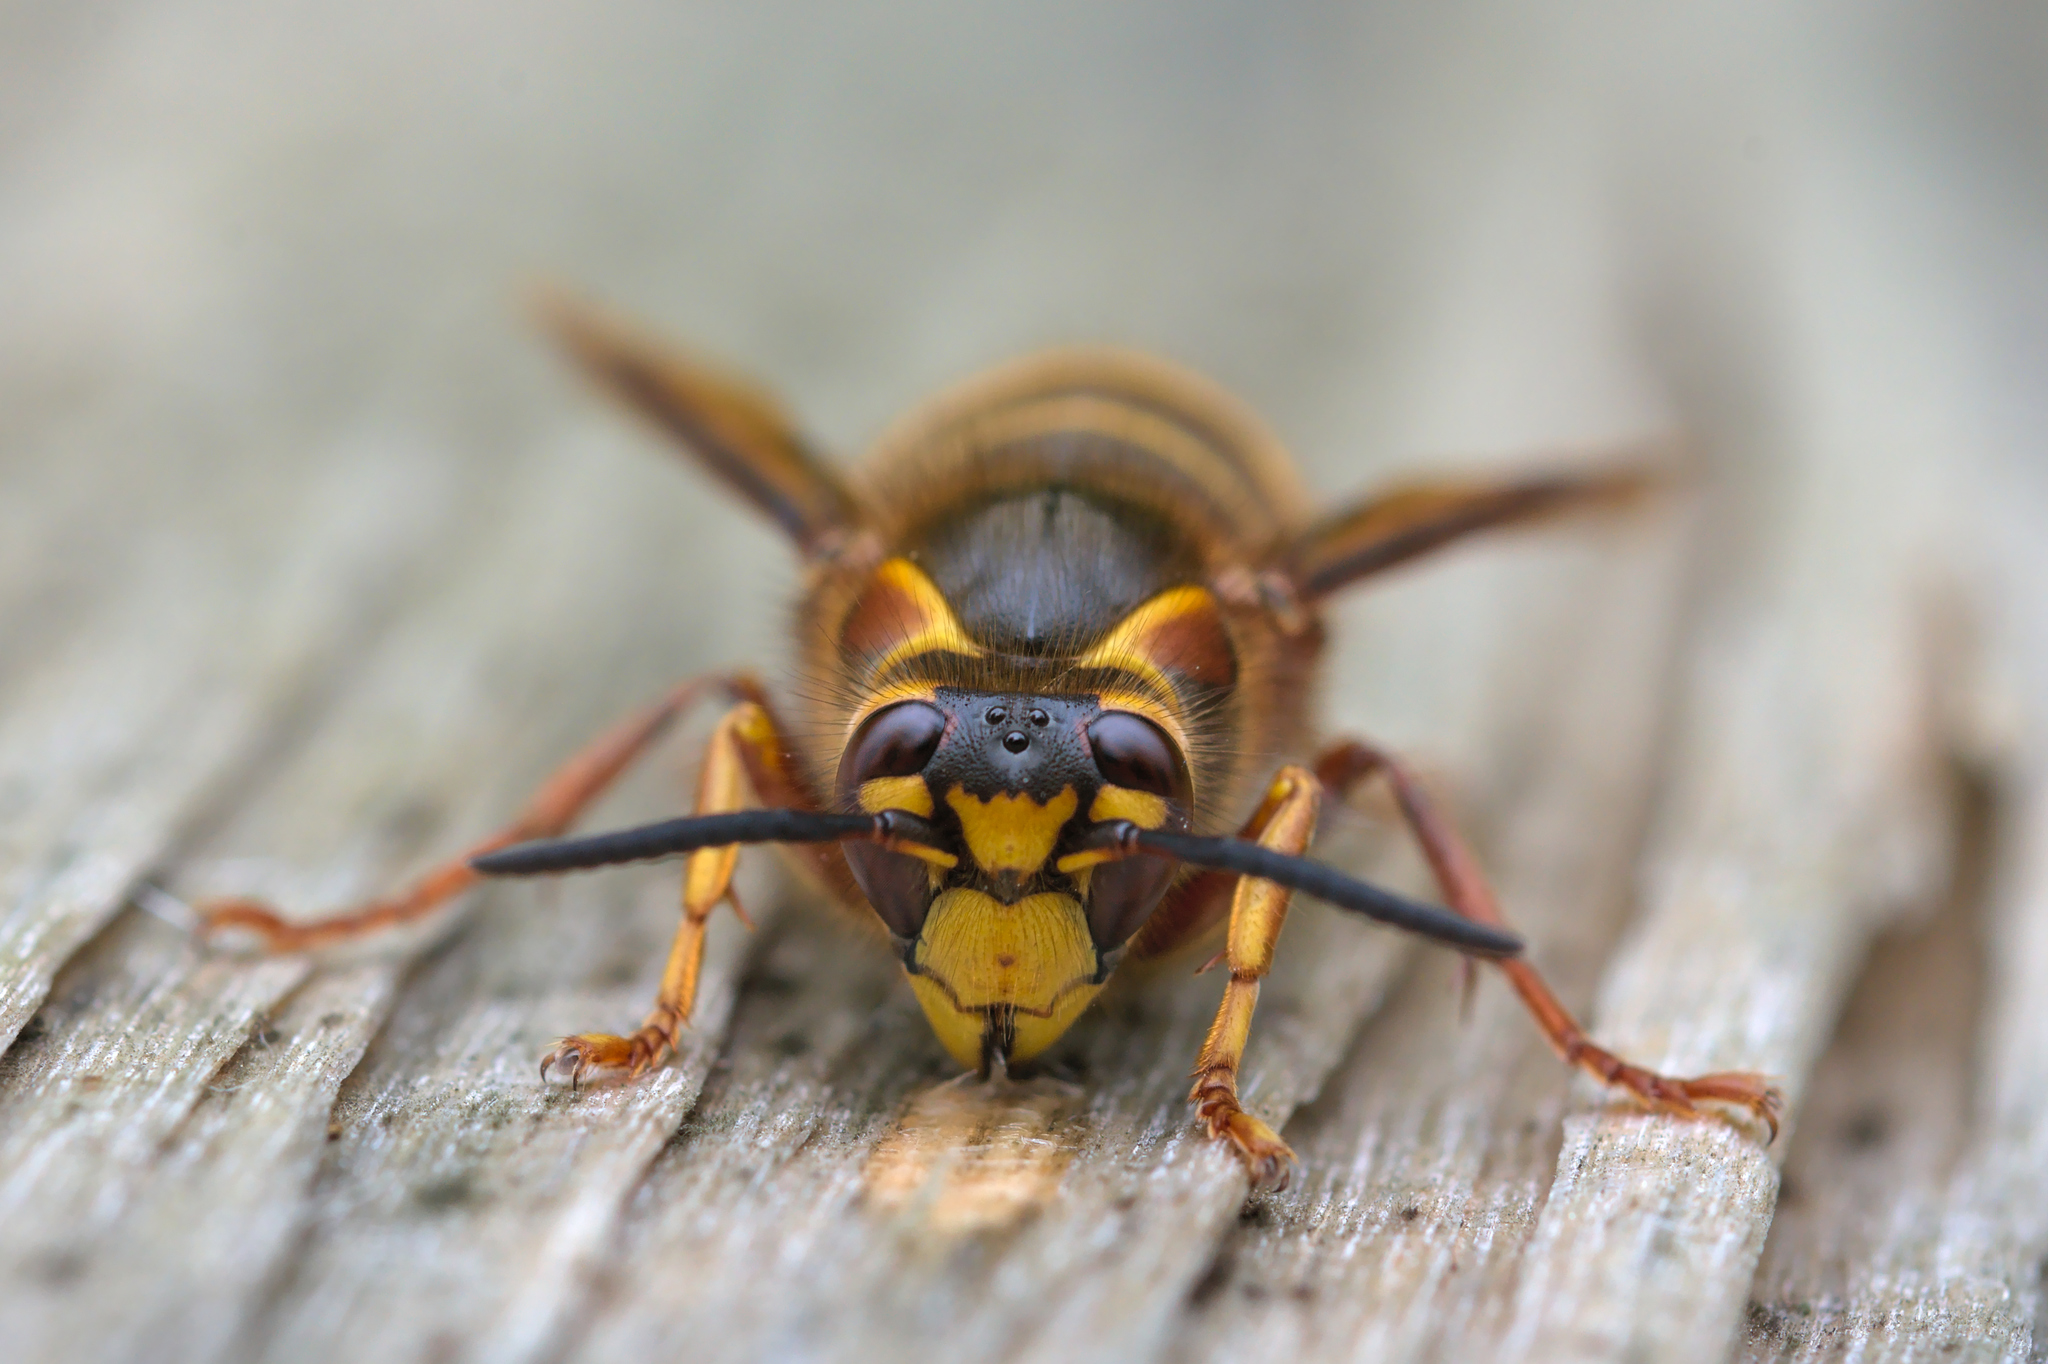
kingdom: Animalia
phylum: Arthropoda
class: Insecta
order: Hymenoptera
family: Vespidae
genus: Dolichovespula
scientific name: Dolichovespula media
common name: Median wasp
